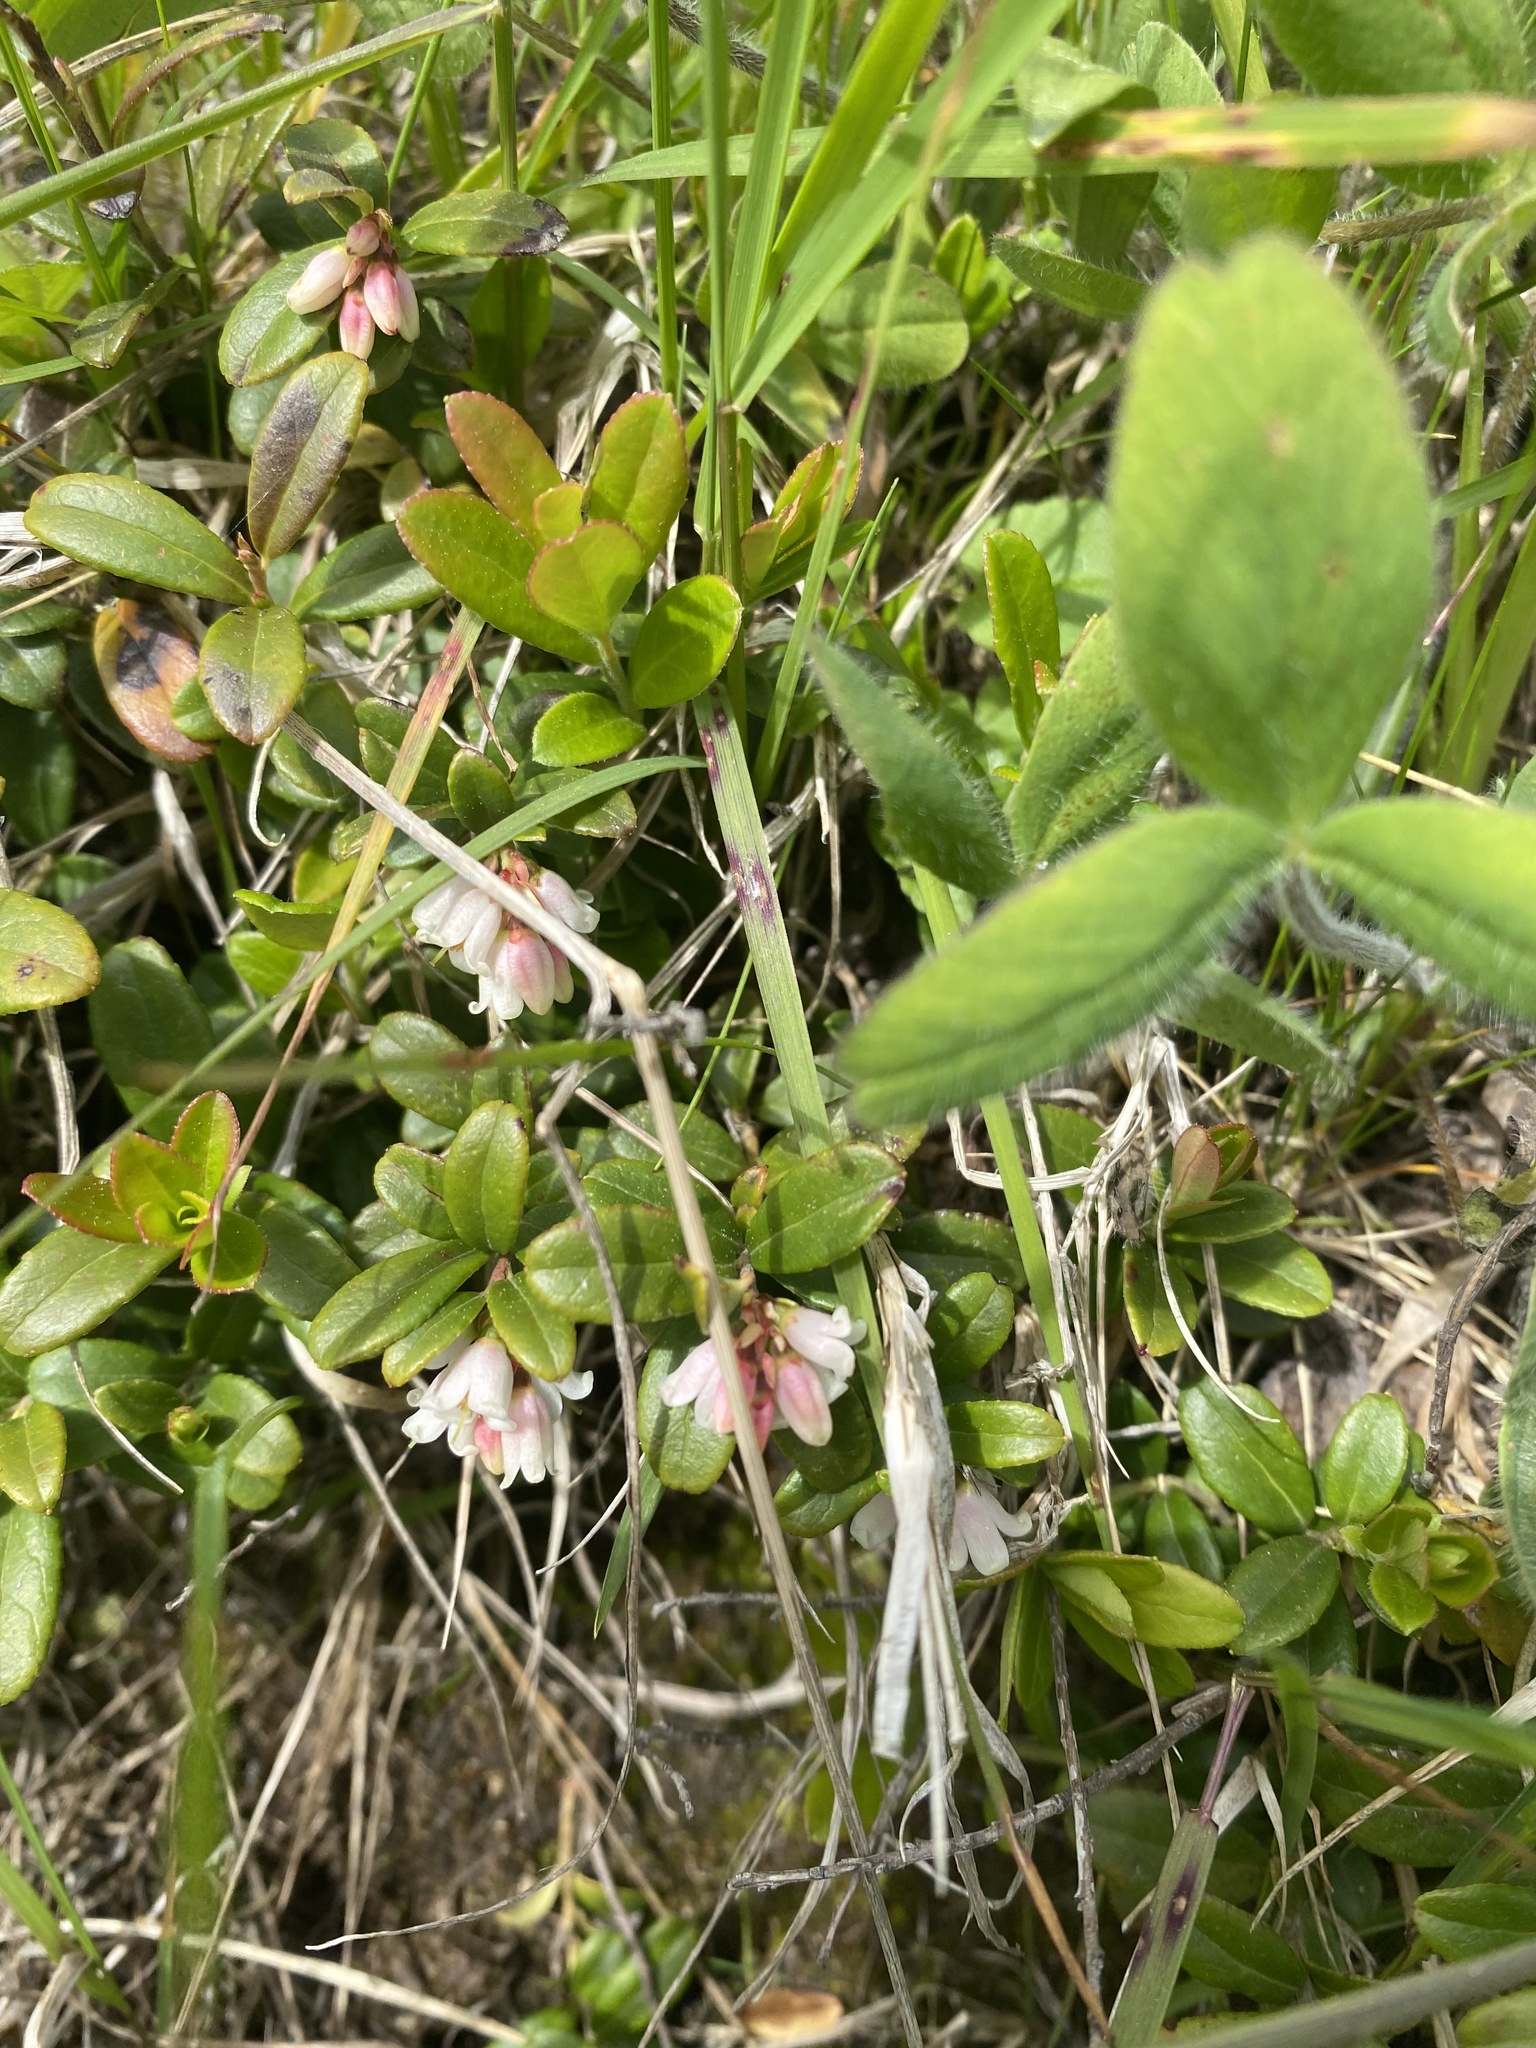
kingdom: Plantae
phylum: Tracheophyta
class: Magnoliopsida
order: Ericales
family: Ericaceae
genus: Vaccinium
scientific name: Vaccinium vitis-idaea
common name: Cowberry
